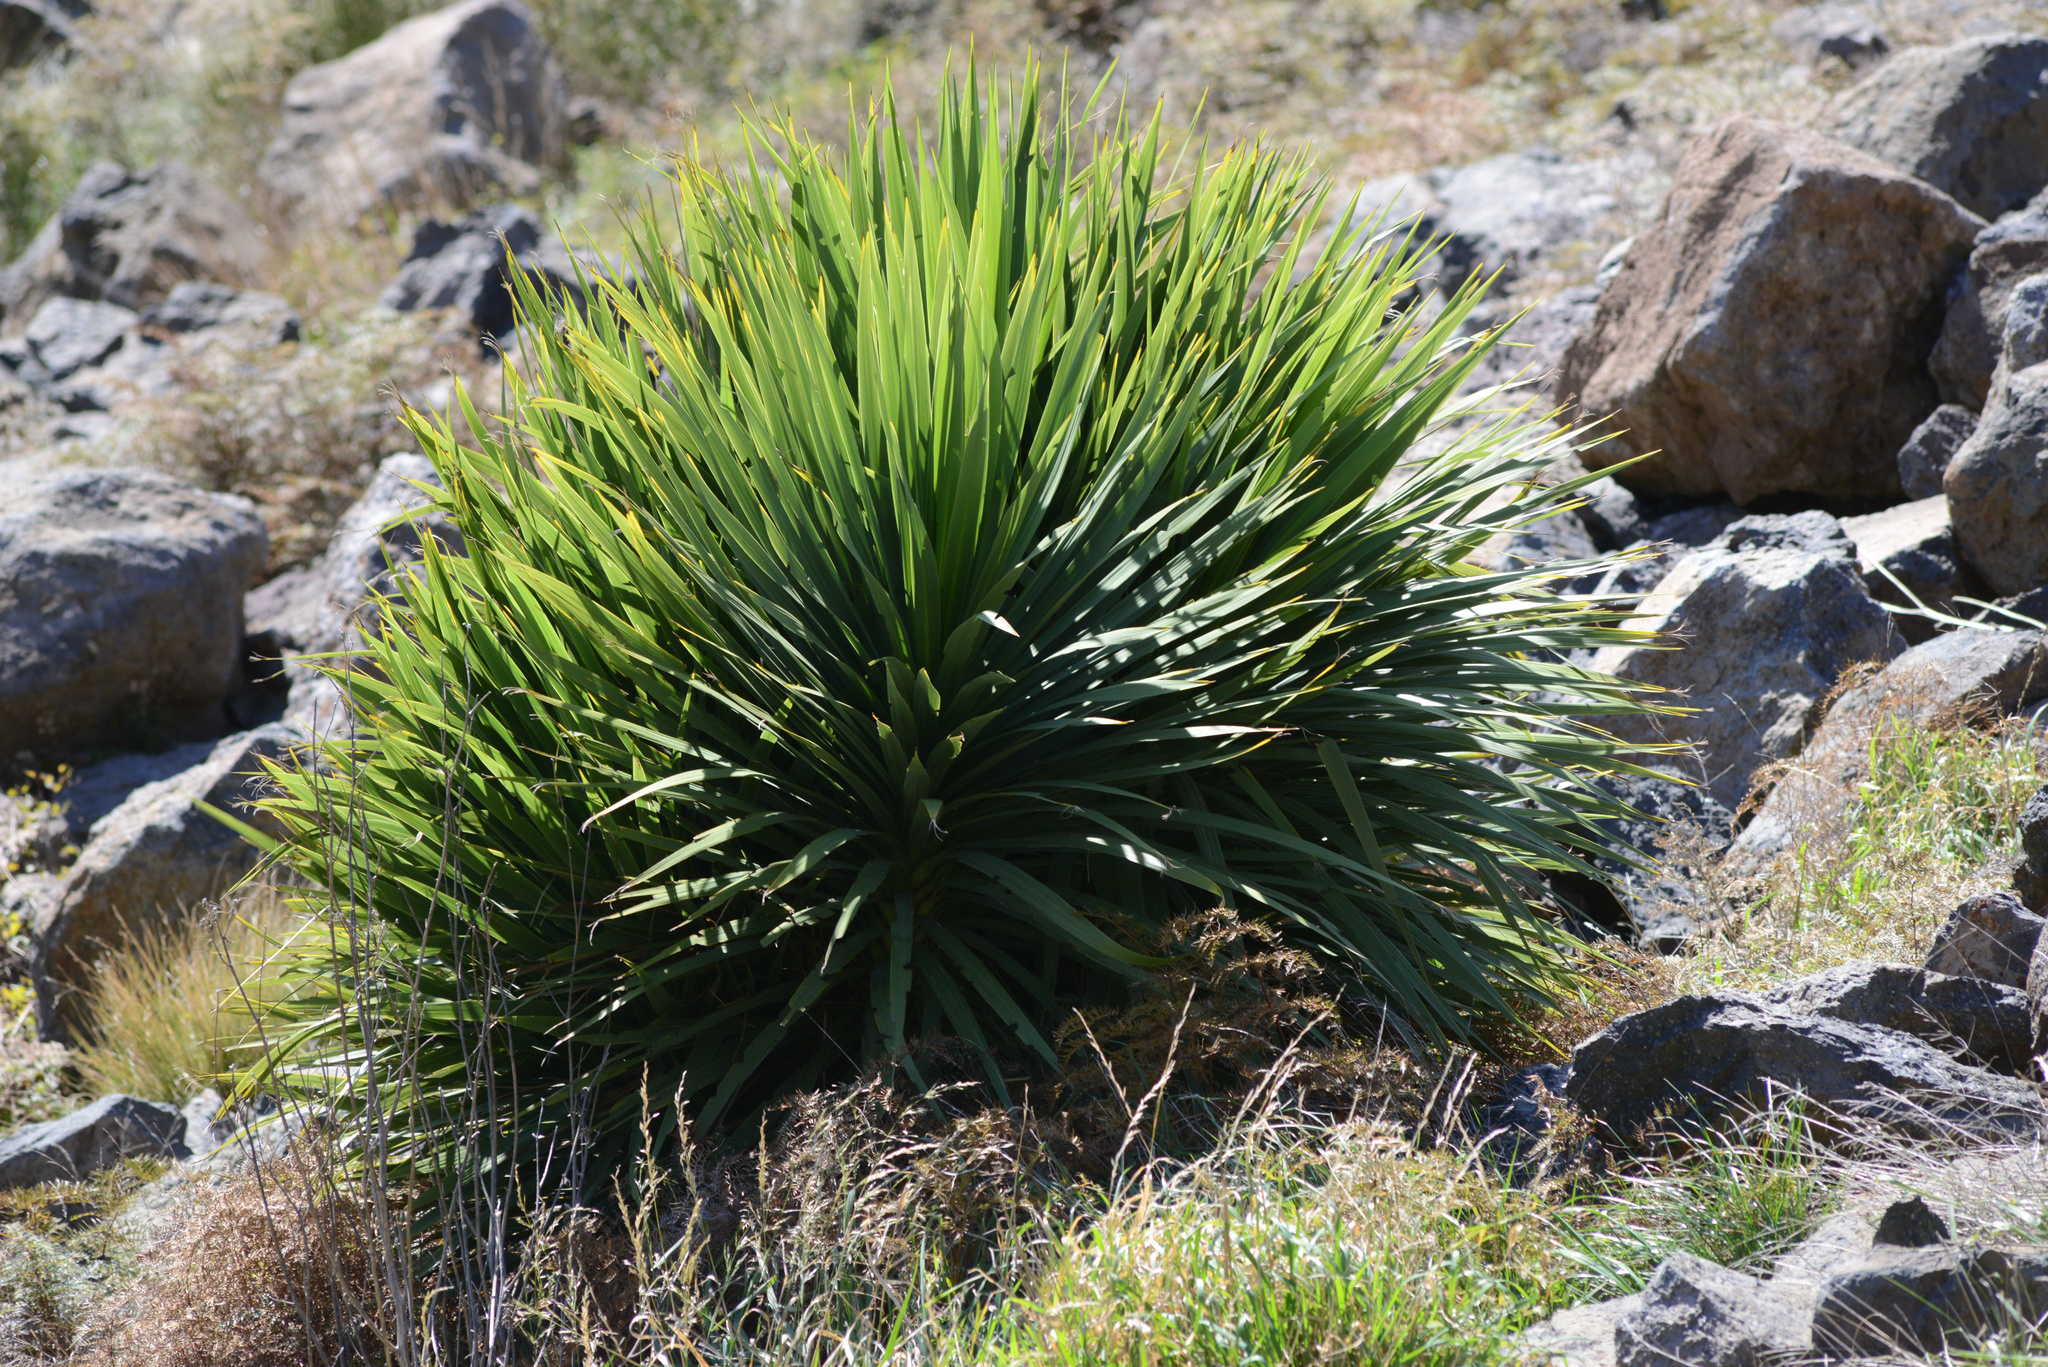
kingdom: Plantae
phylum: Tracheophyta
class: Liliopsida
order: Asparagales
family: Asparagaceae
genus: Cordyline
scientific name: Cordyline australis
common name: Cabbage-palm
